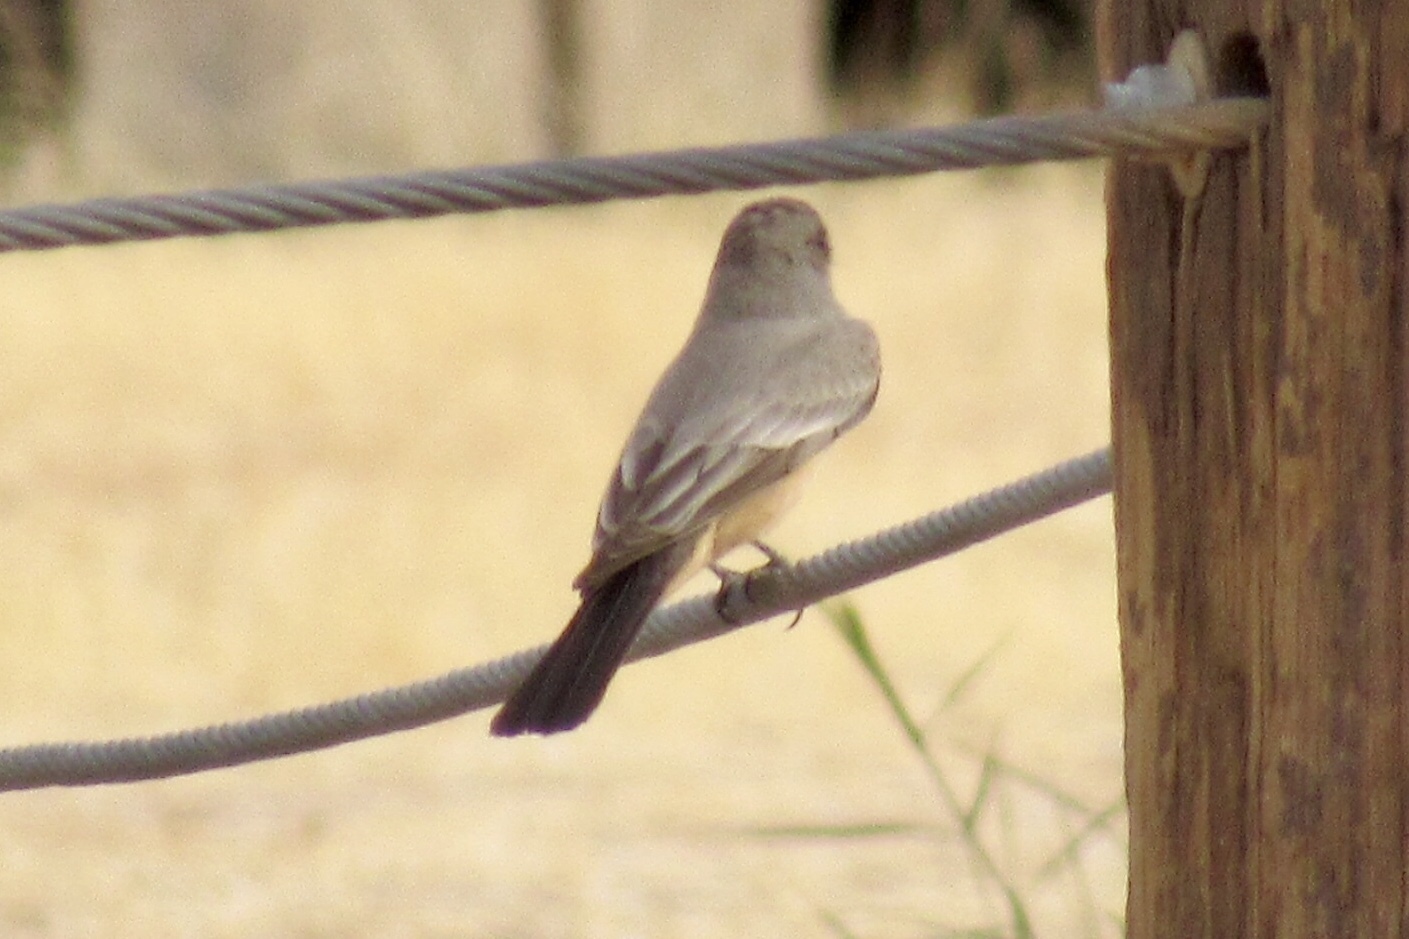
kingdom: Animalia
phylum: Chordata
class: Aves
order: Passeriformes
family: Tyrannidae
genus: Sayornis
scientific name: Sayornis saya
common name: Say's phoebe
